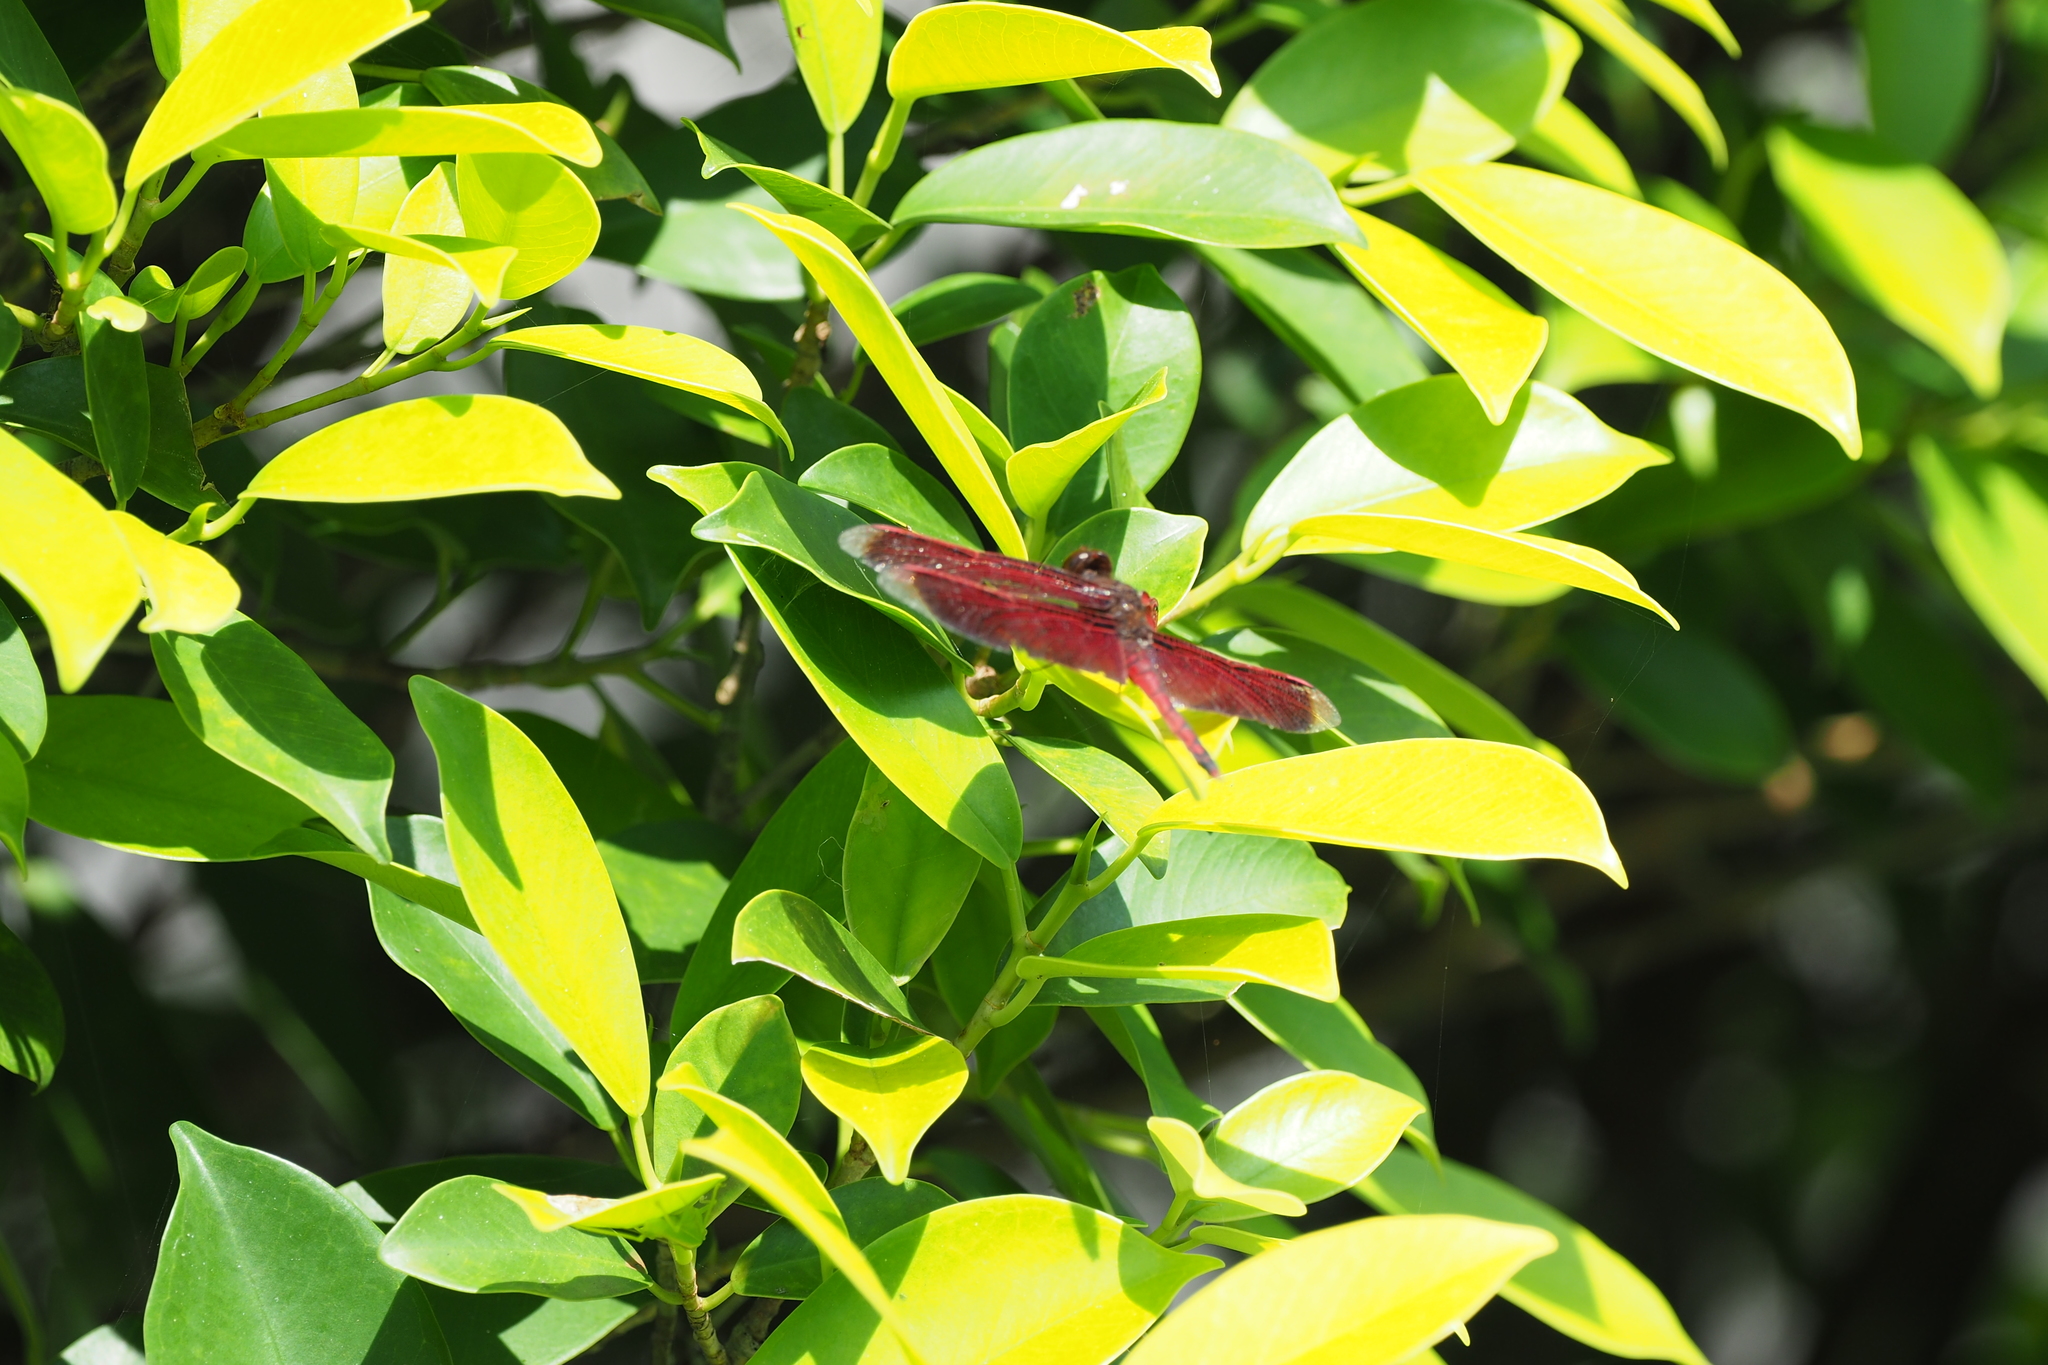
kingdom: Animalia
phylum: Arthropoda
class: Insecta
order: Odonata
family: Libellulidae
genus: Neurothemis
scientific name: Neurothemis taiwanensis
